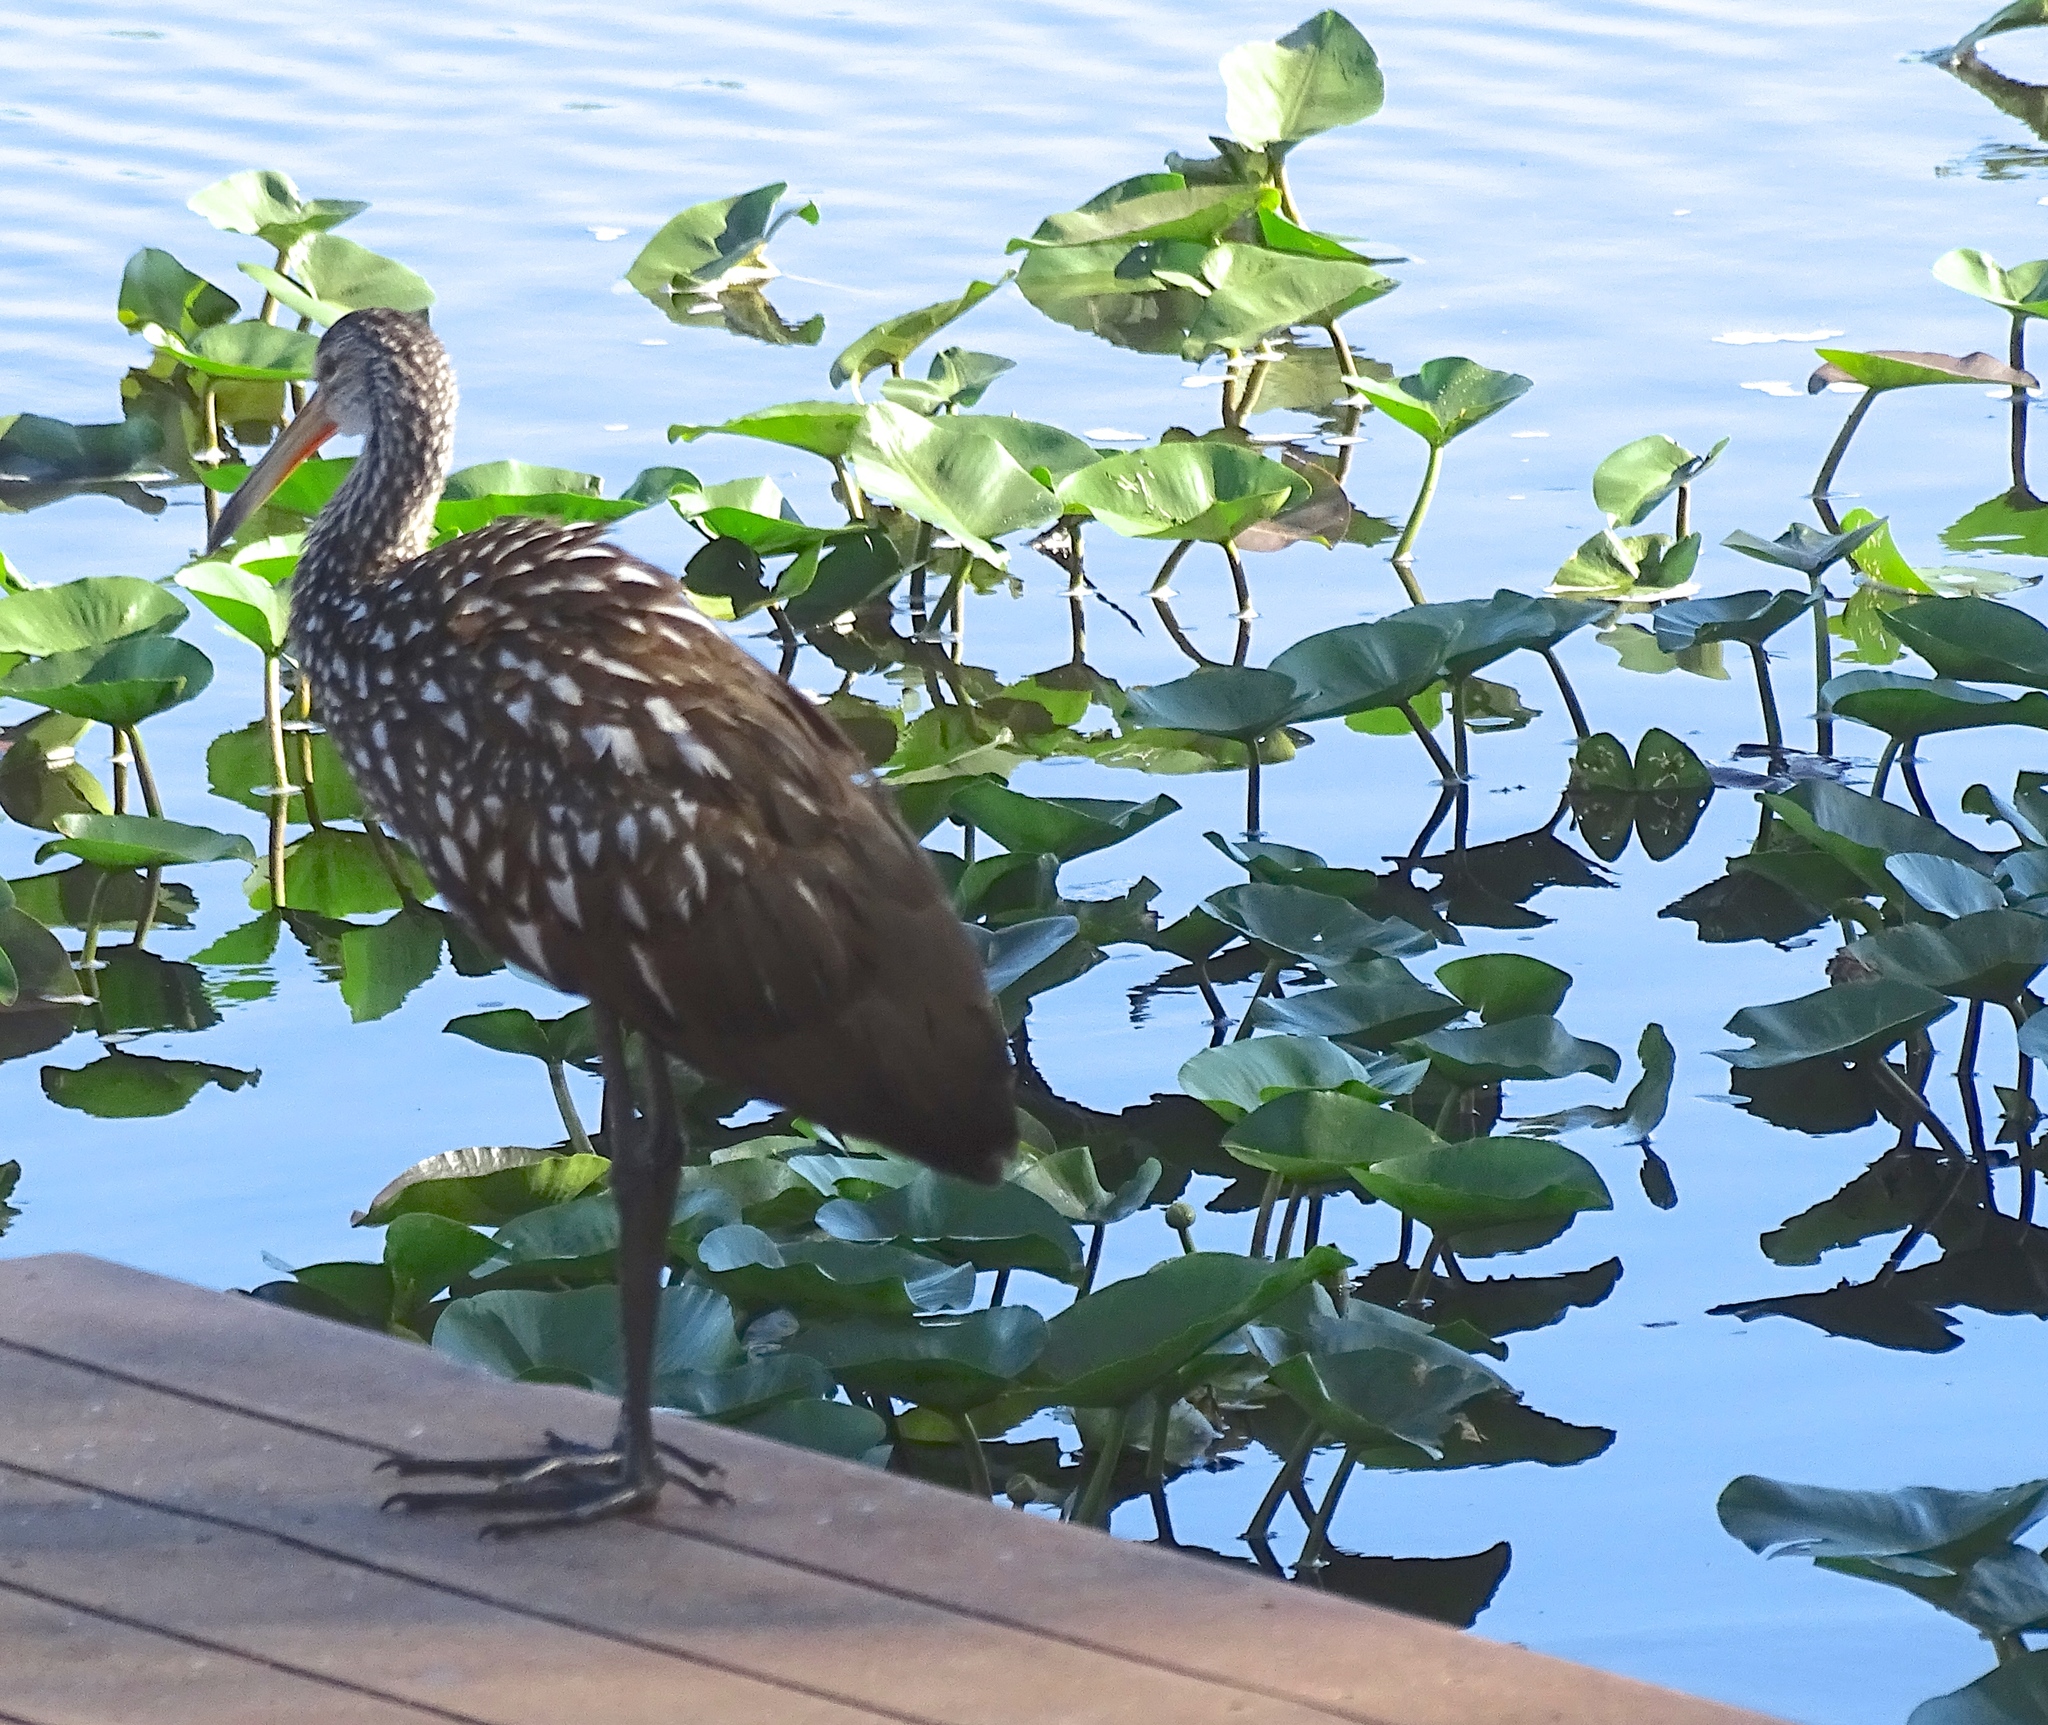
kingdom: Animalia
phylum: Chordata
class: Aves
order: Gruiformes
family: Aramidae
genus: Aramus
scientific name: Aramus guarauna
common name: Limpkin
